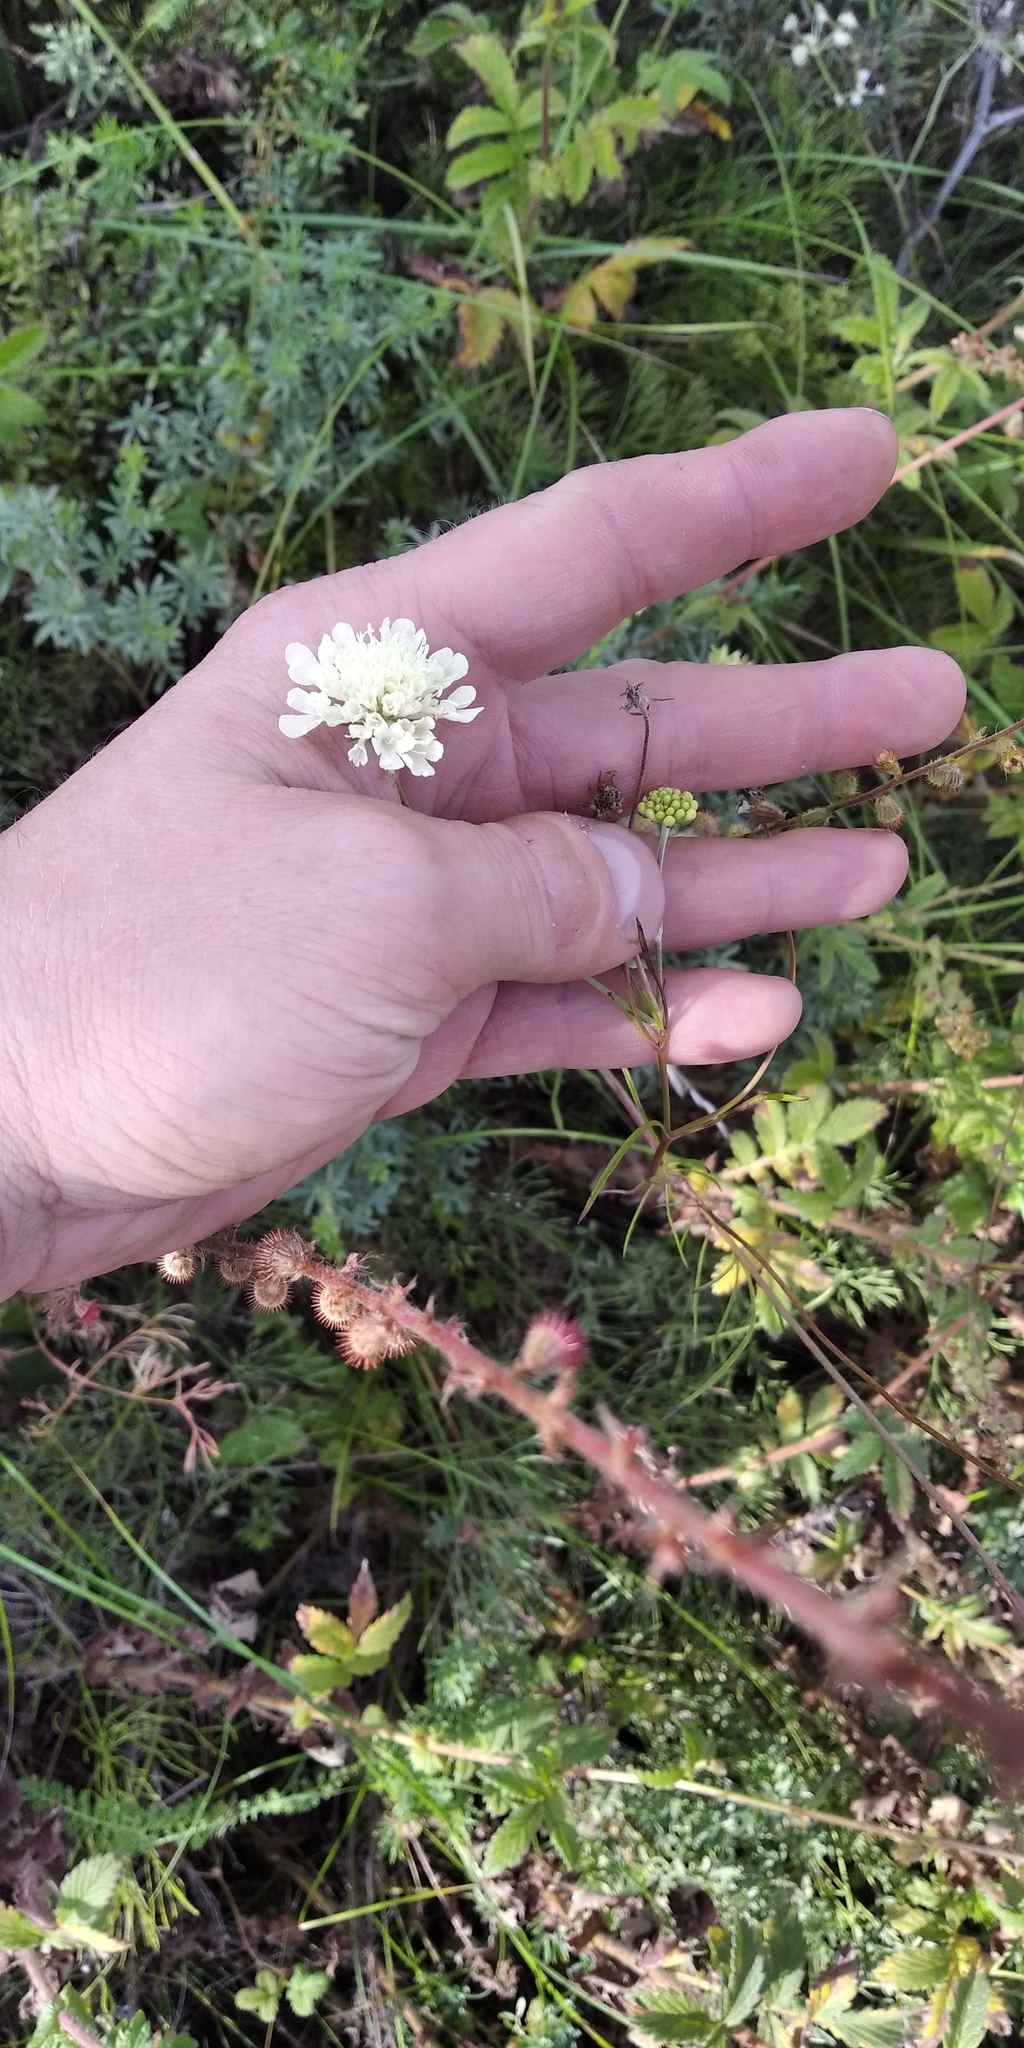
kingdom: Plantae
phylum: Tracheophyta
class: Magnoliopsida
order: Dipsacales
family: Caprifoliaceae
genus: Scabiosa
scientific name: Scabiosa ochroleuca
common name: Cream pincushions
